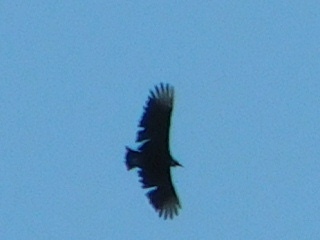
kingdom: Animalia
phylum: Chordata
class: Aves
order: Accipitriformes
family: Cathartidae
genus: Coragyps
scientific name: Coragyps atratus
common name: Black vulture
